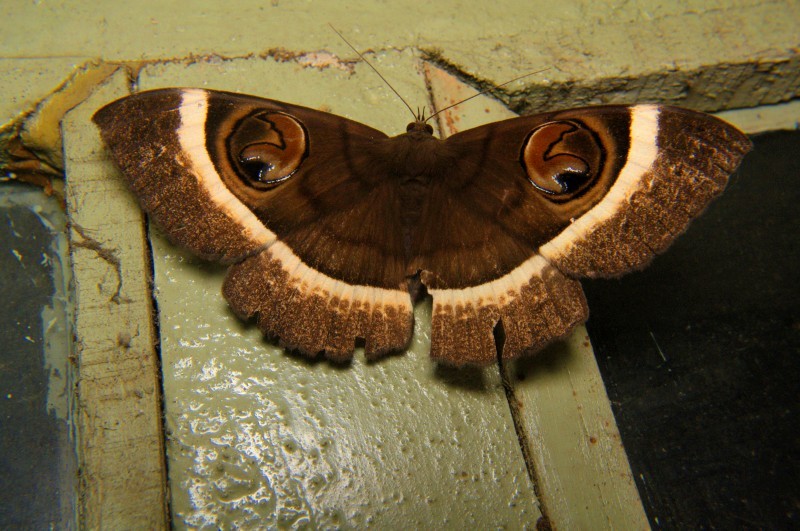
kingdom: Animalia
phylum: Arthropoda
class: Insecta
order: Lepidoptera
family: Erebidae
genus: Erebus
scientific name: Erebus gemmans
